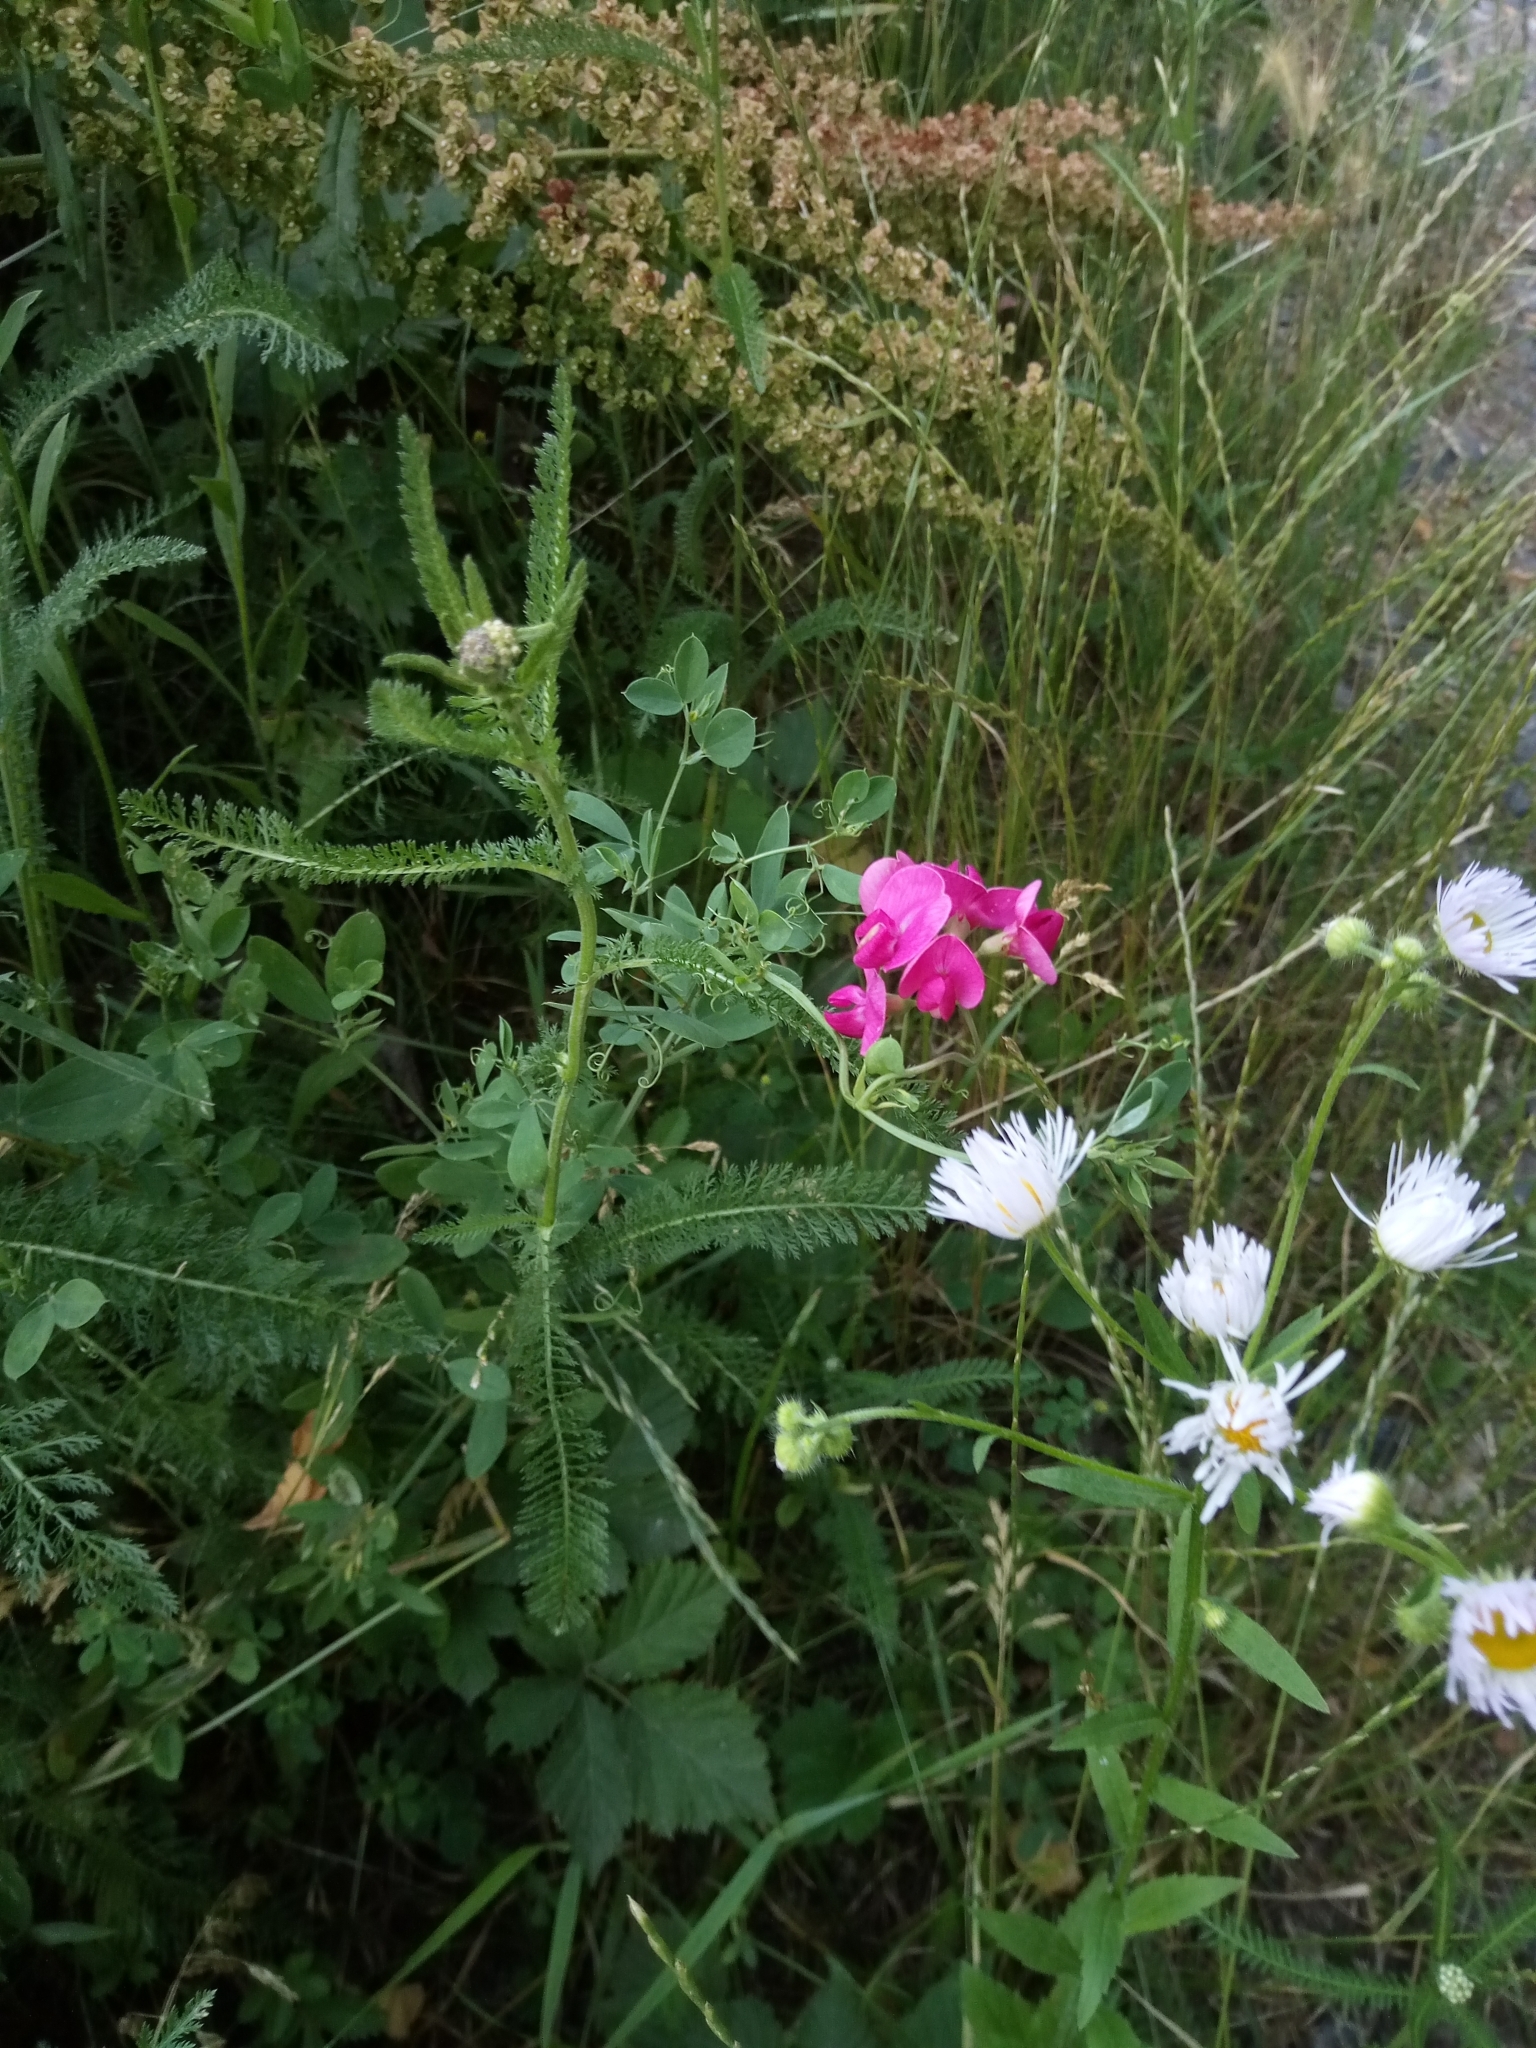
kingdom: Plantae
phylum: Tracheophyta
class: Magnoliopsida
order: Fabales
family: Fabaceae
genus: Lathyrus
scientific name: Lathyrus tuberosus
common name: Tuberous pea
